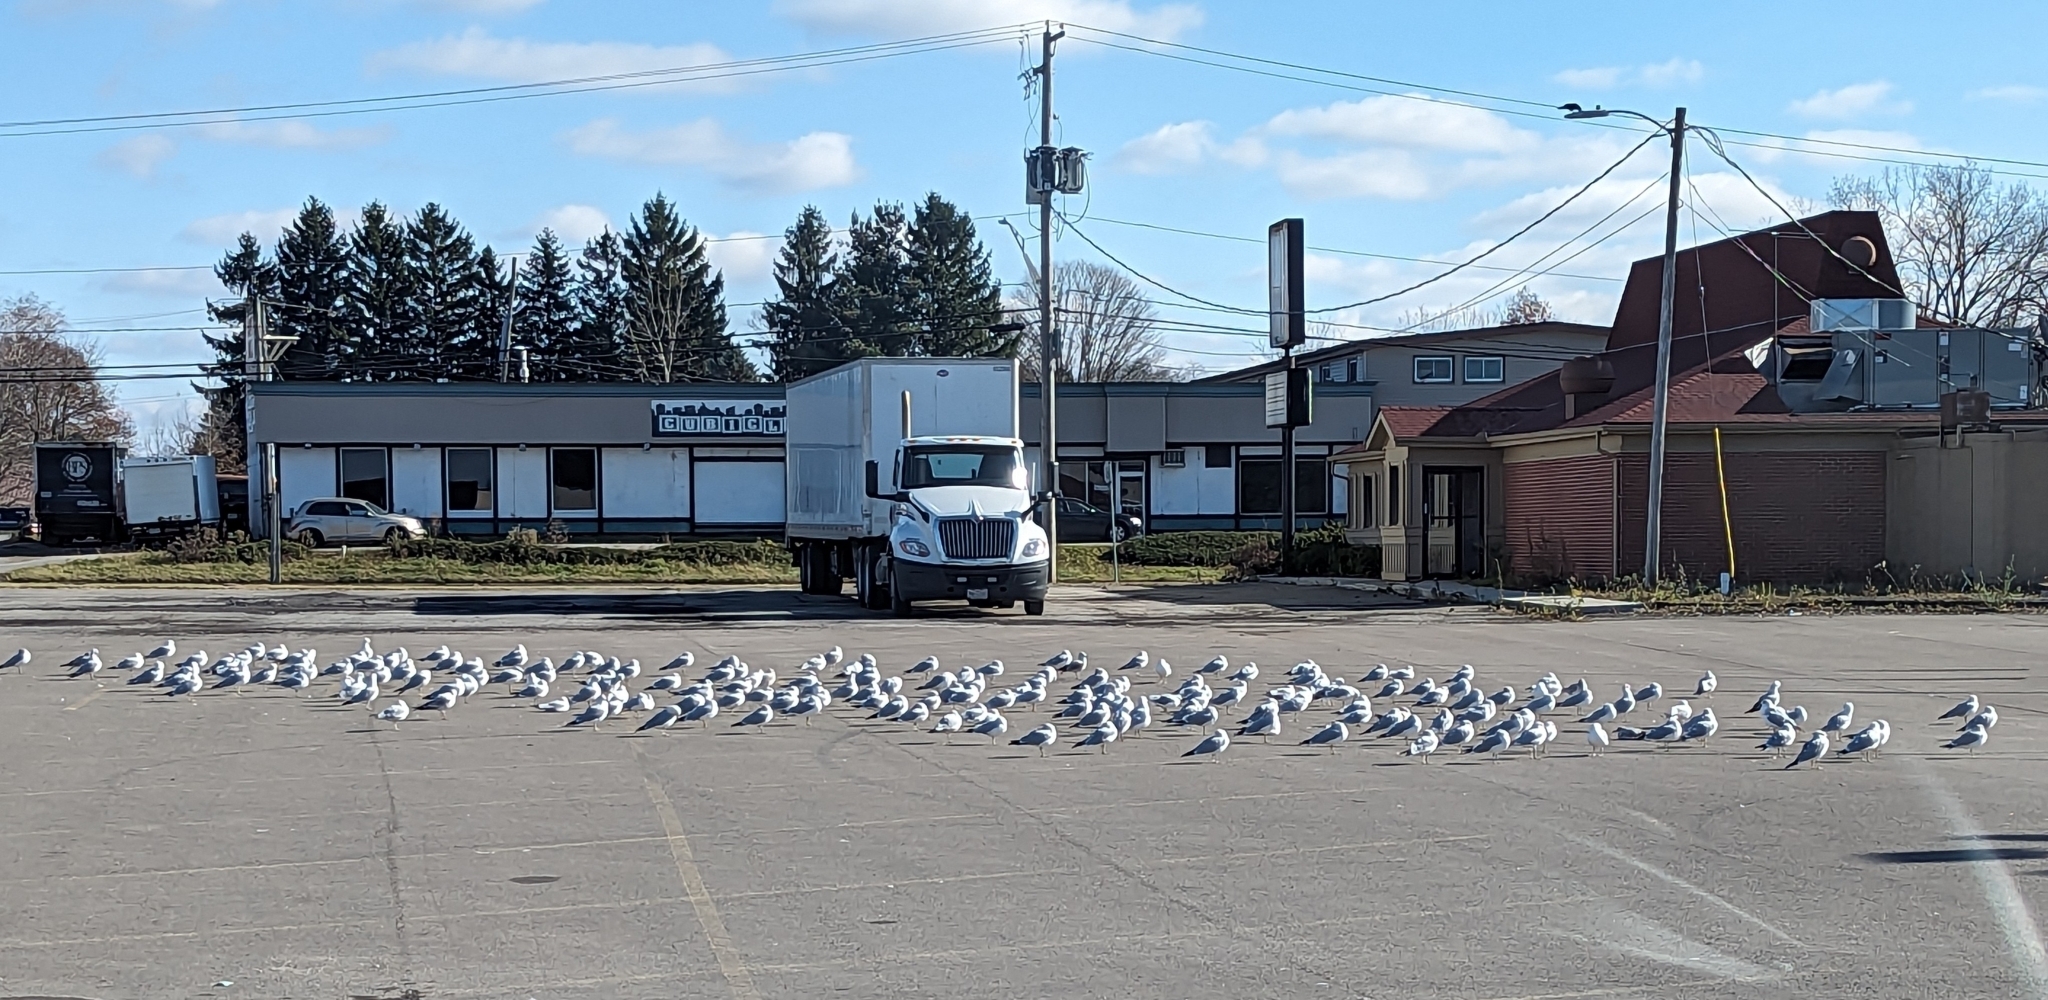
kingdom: Animalia
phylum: Chordata
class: Aves
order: Charadriiformes
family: Laridae
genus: Larus
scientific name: Larus delawarensis
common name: Ring-billed gull
